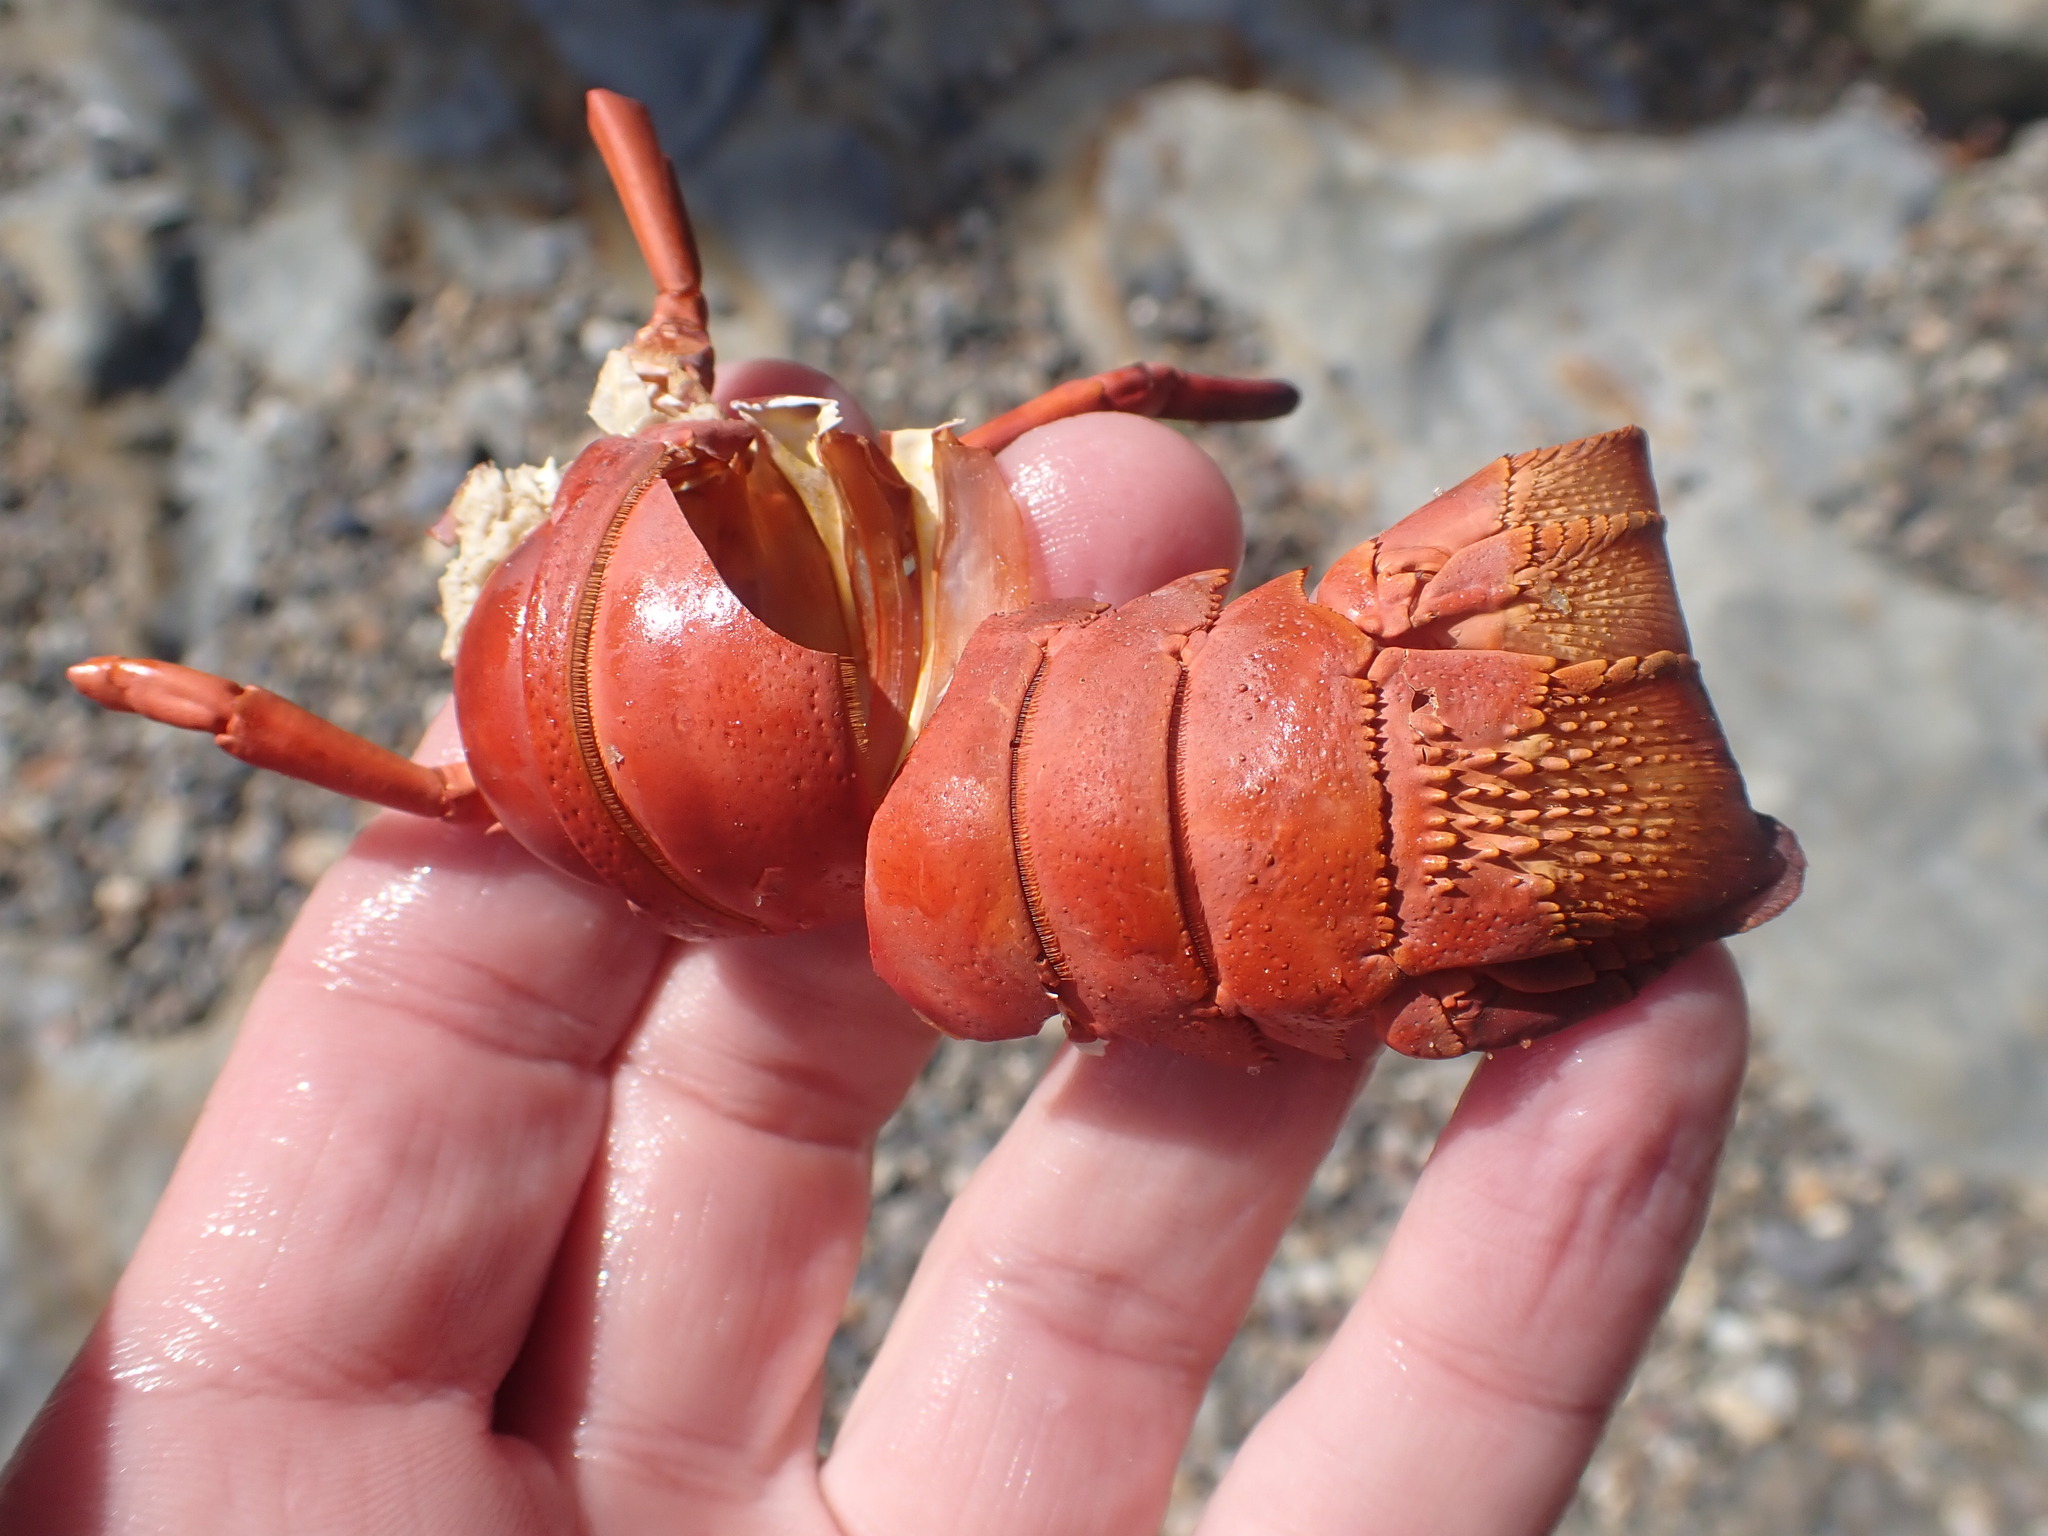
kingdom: Animalia
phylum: Arthropoda
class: Malacostraca
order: Decapoda
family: Palinuridae
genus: Sagmariasus
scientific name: Sagmariasus verreauxi
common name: Green rock lobster
